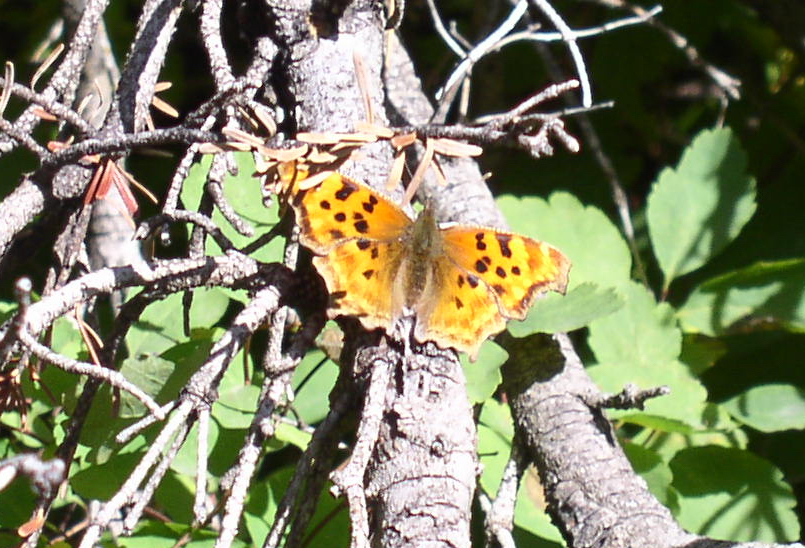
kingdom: Animalia
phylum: Arthropoda
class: Insecta
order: Lepidoptera
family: Nymphalidae
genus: Polygonia
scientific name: Polygonia satyrus
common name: Satyr angle wing
